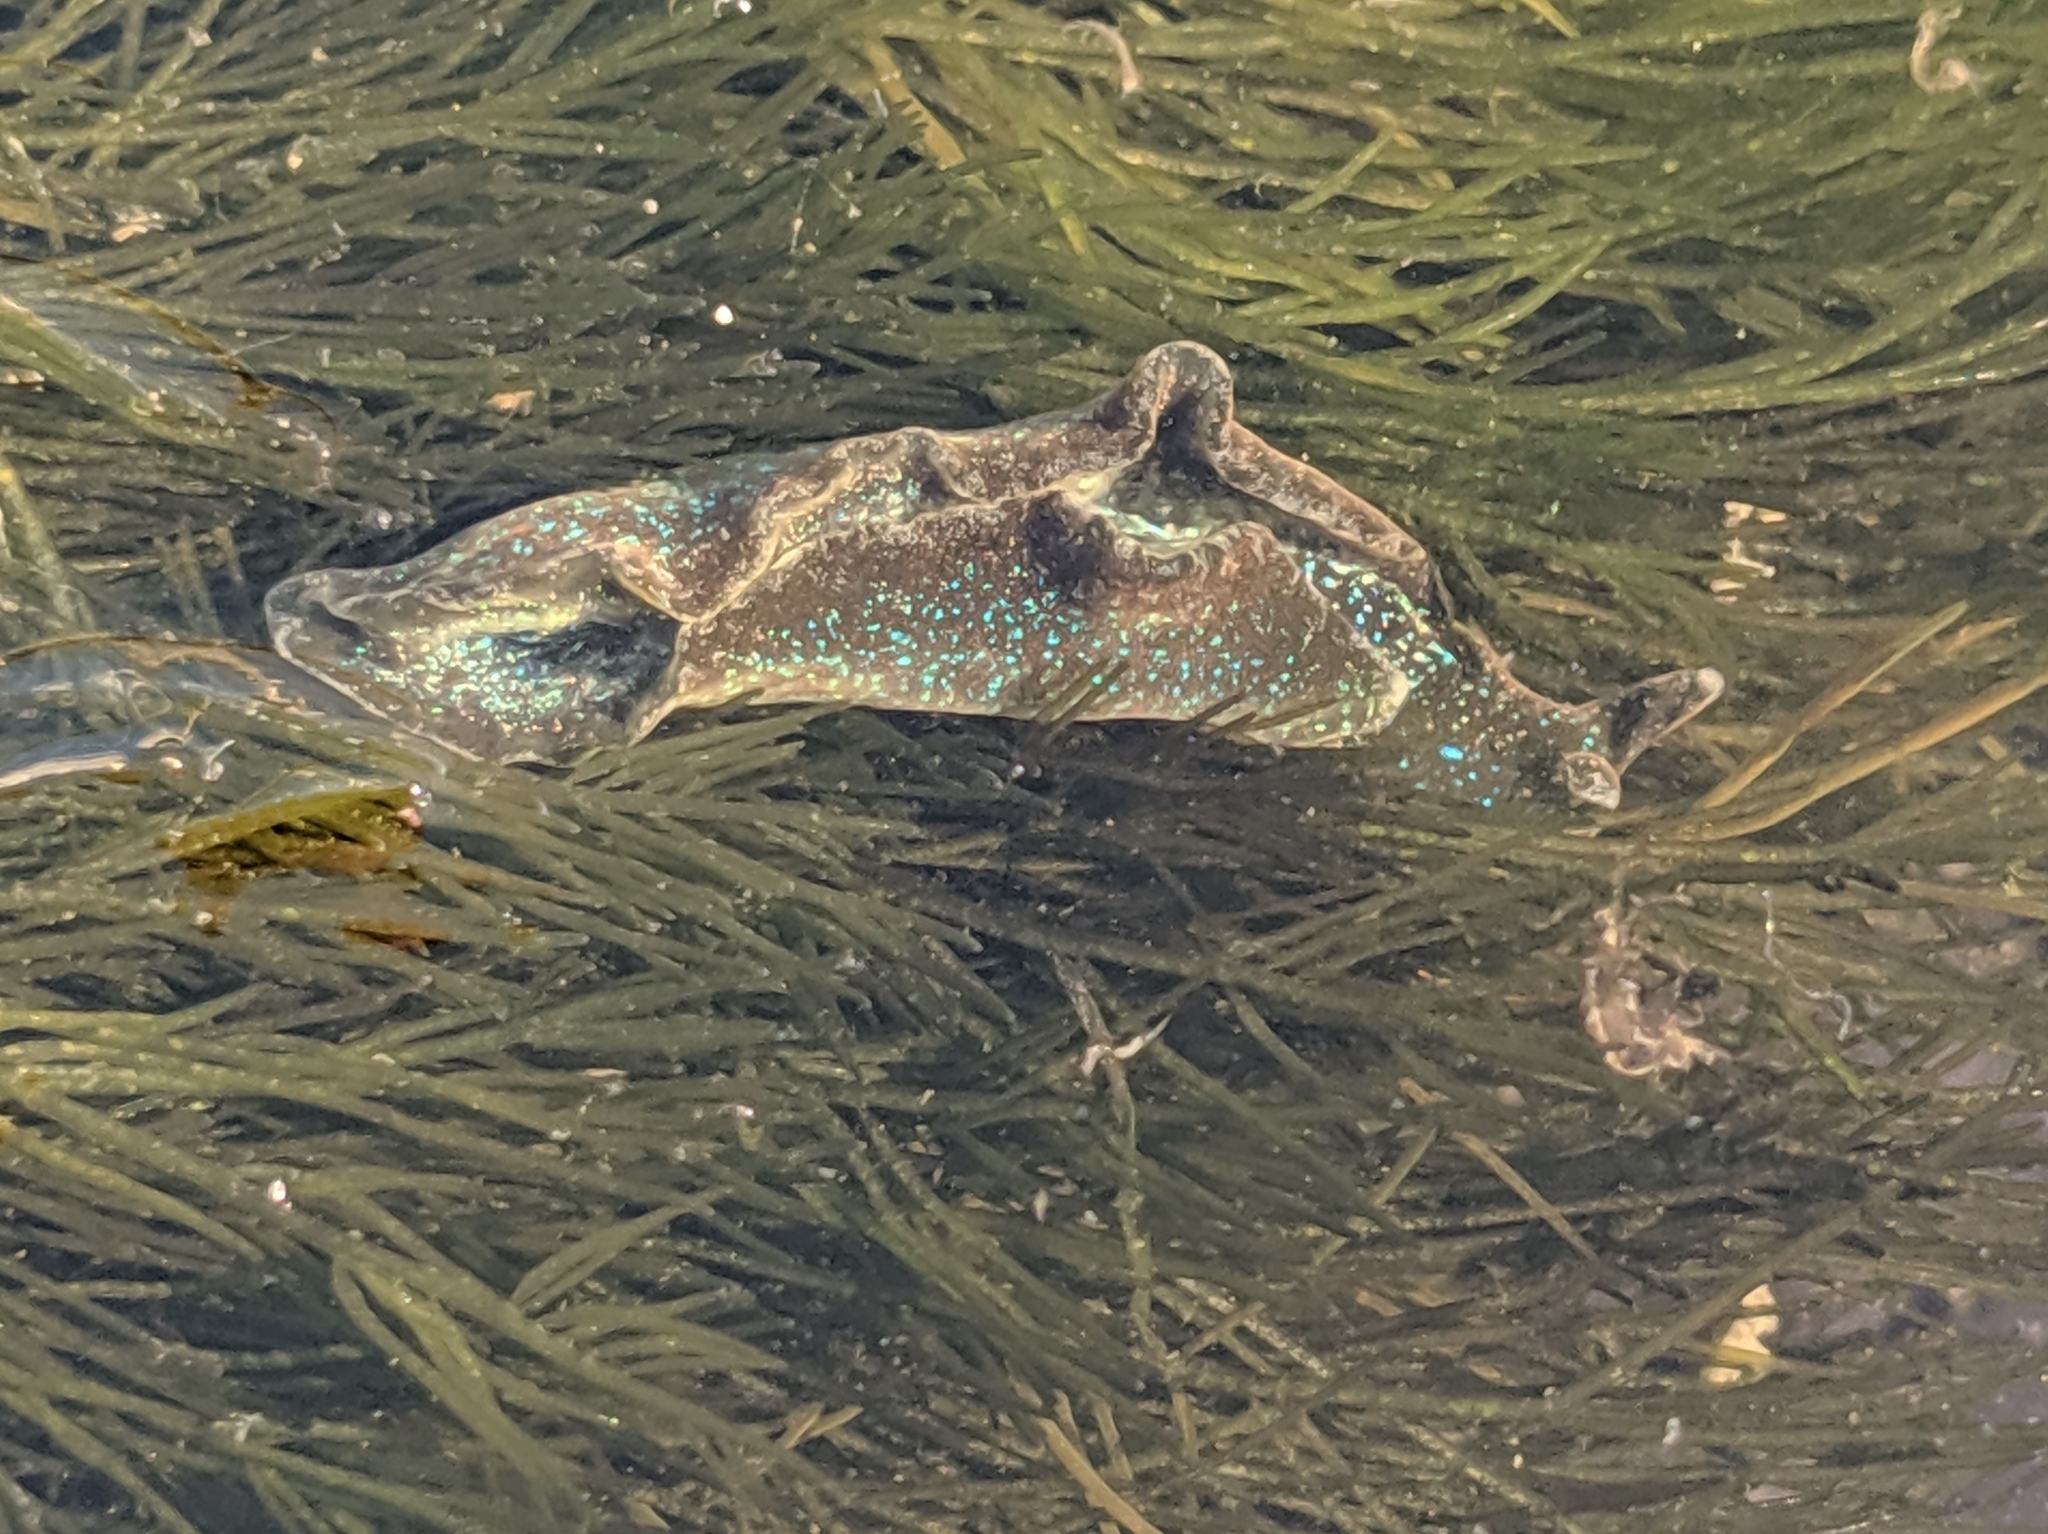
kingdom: Animalia
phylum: Mollusca
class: Gastropoda
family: Plakobranchidae
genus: Elysia
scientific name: Elysia hedgpethi
